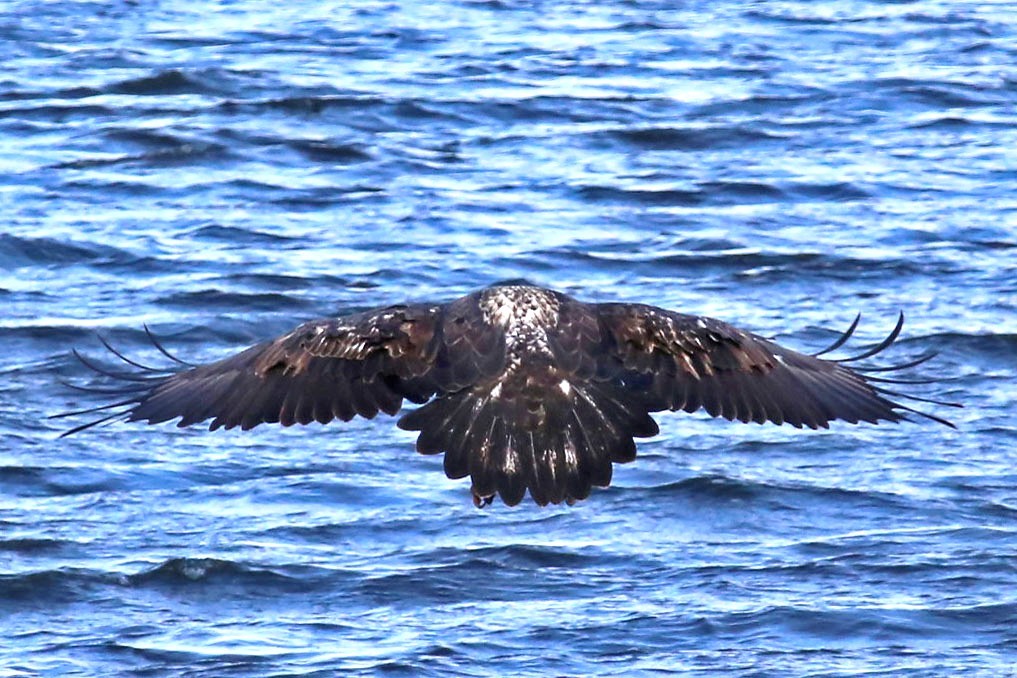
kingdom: Animalia
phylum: Chordata
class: Aves
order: Accipitriformes
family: Accipitridae
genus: Haliaeetus
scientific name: Haliaeetus leucocephalus
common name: Bald eagle
